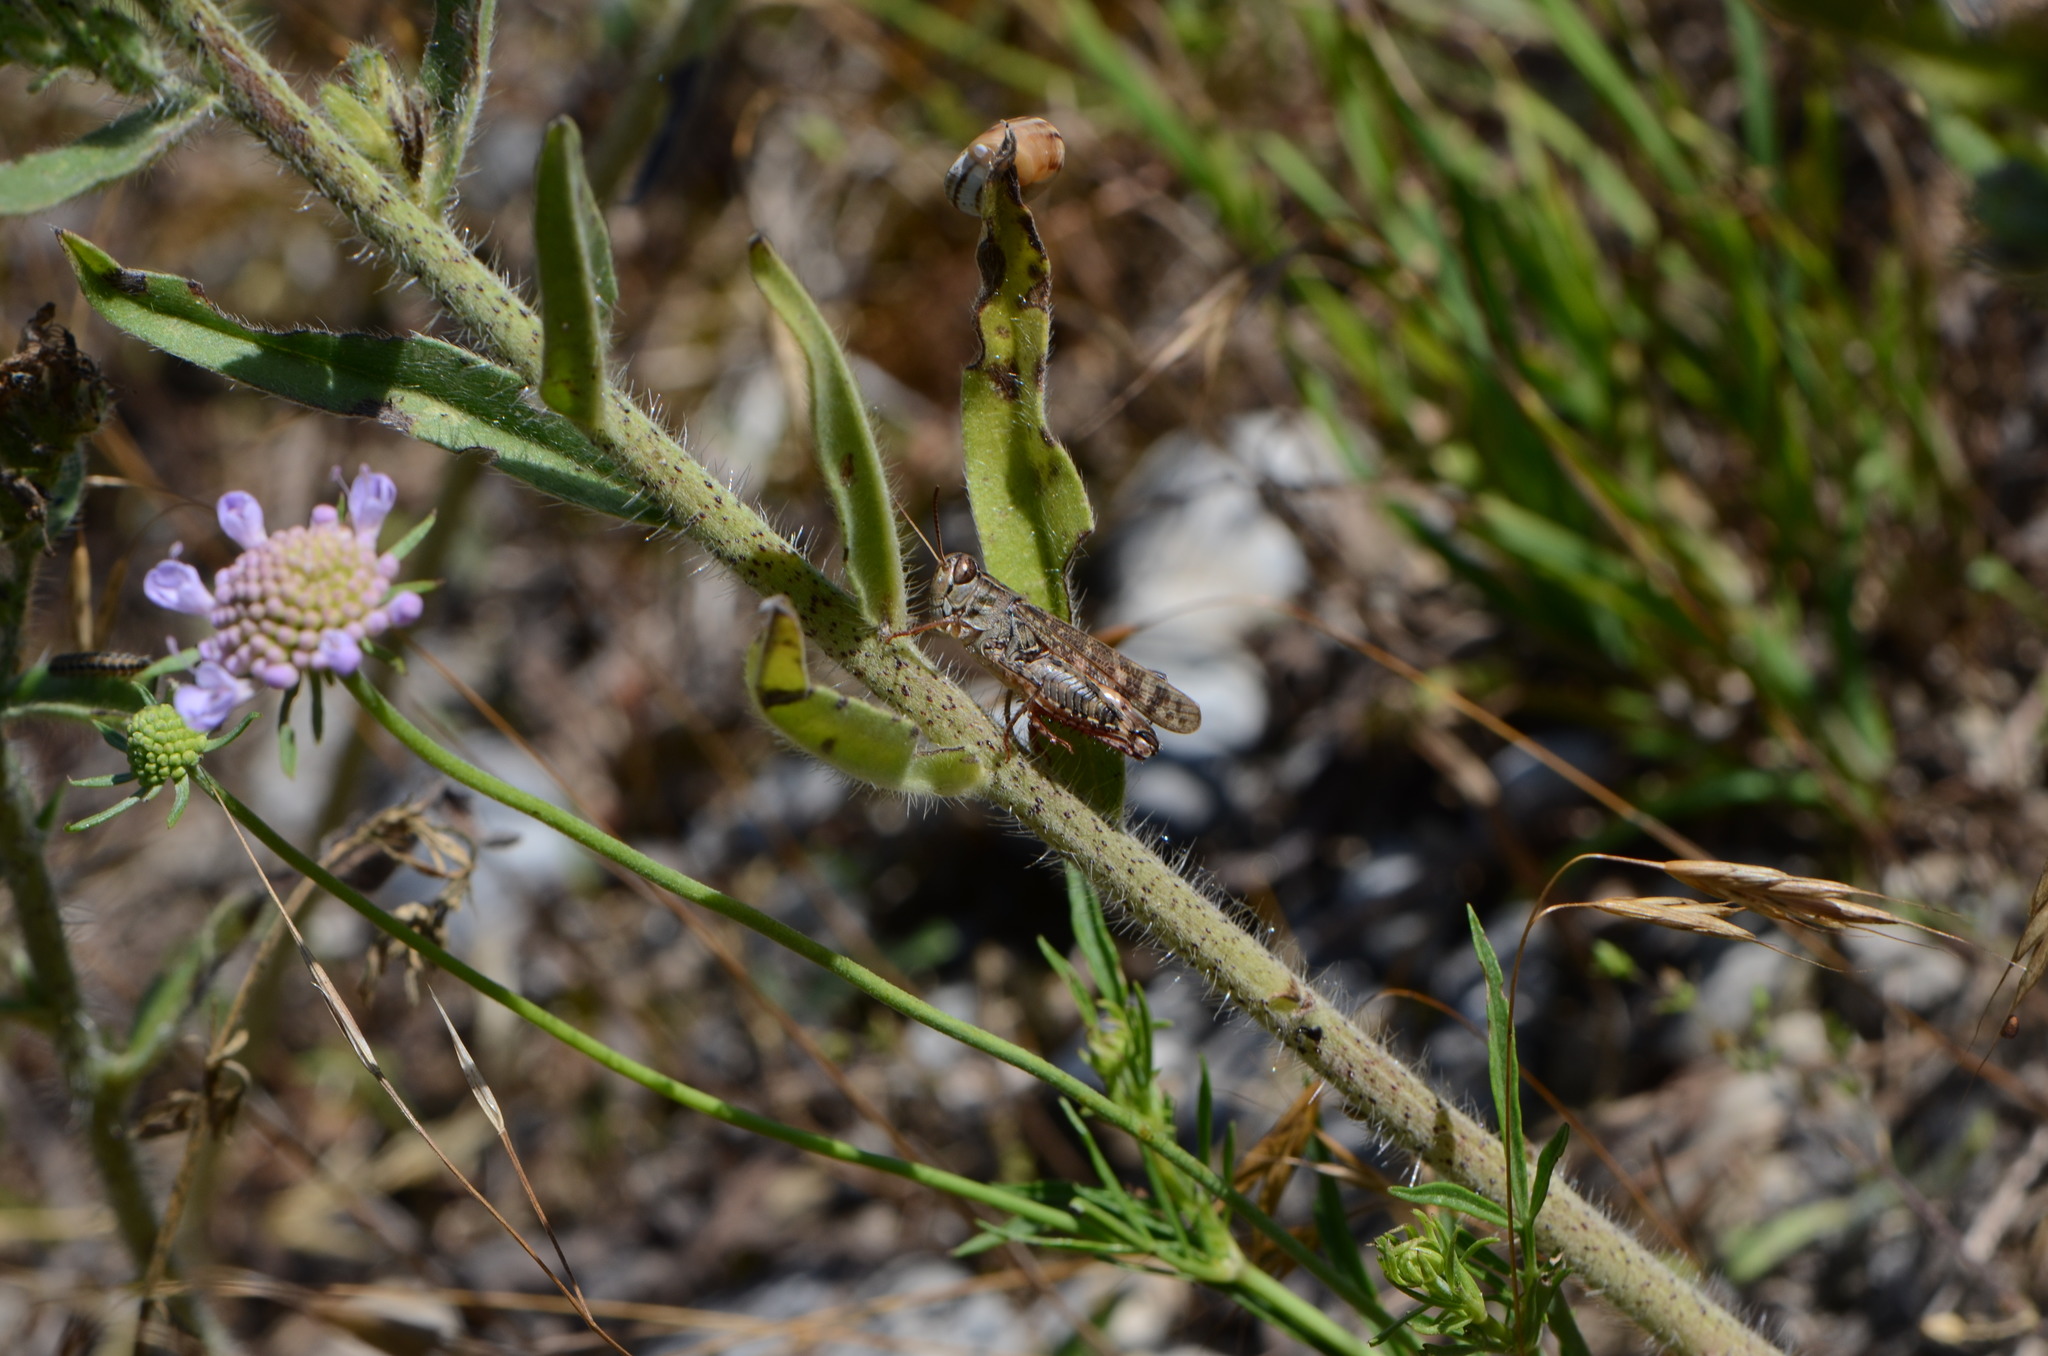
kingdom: Animalia
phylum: Arthropoda
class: Insecta
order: Orthoptera
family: Acrididae
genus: Calliptamus
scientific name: Calliptamus italicus
